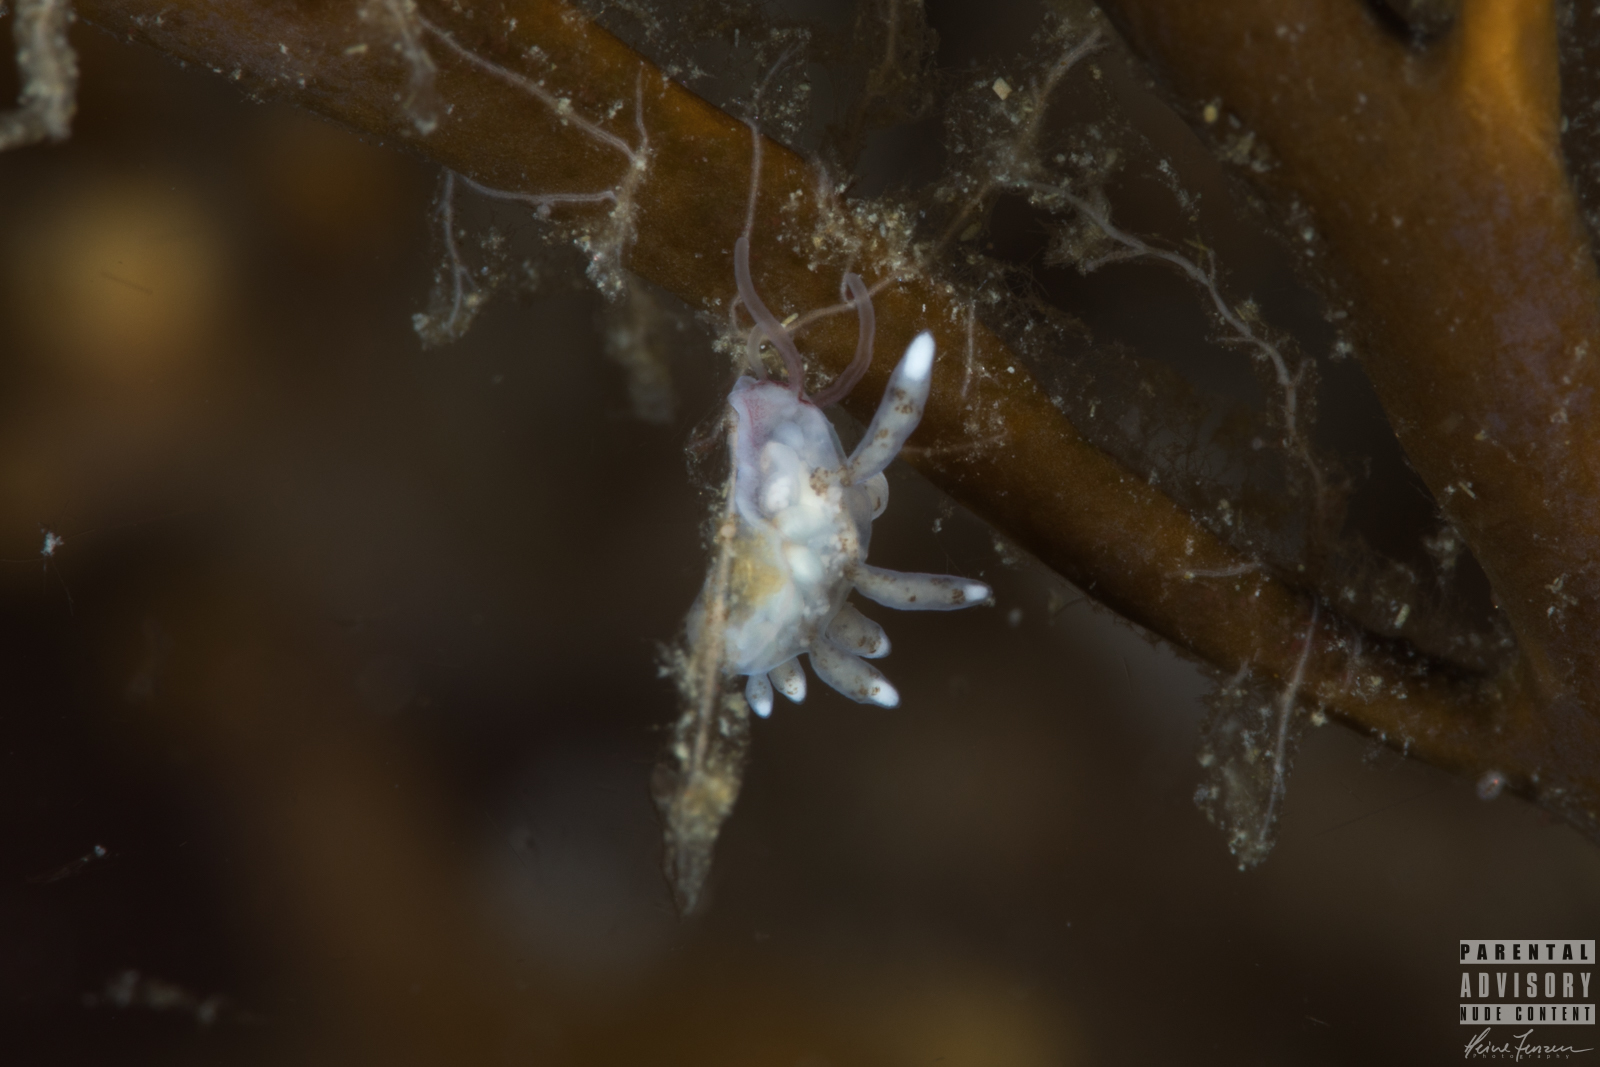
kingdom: Animalia
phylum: Mollusca
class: Gastropoda
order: Nudibranchia
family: Tergipedidae
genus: Tergipes
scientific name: Tergipes tergipes
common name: Johnston's balloon eolis
